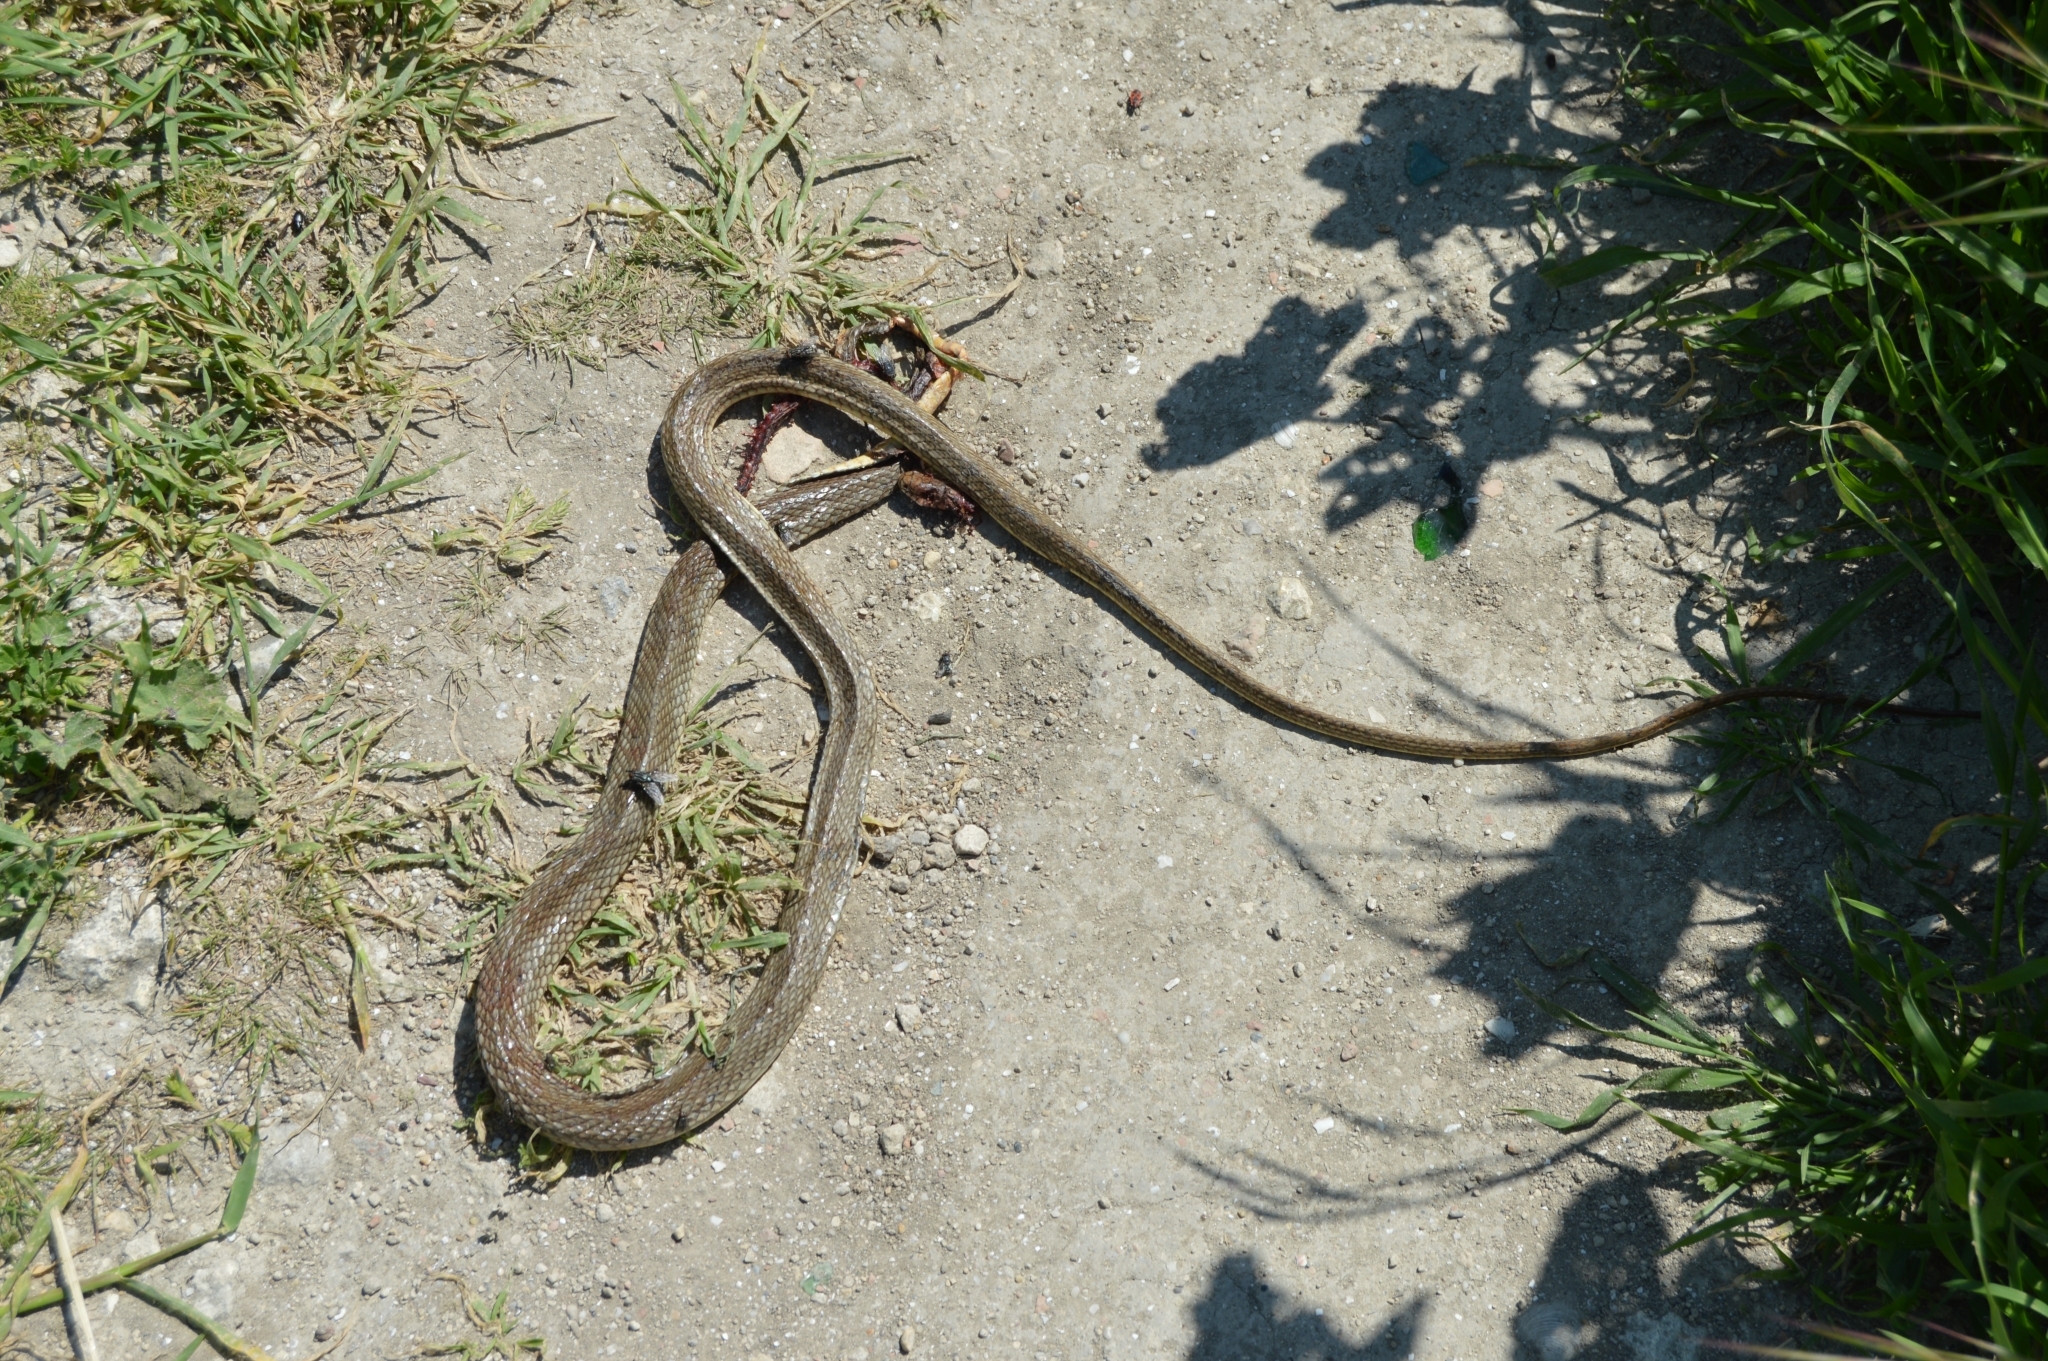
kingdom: Animalia
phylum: Chordata
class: Squamata
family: Colubridae
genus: Dolichophis
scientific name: Dolichophis caspius
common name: Large whip snake
